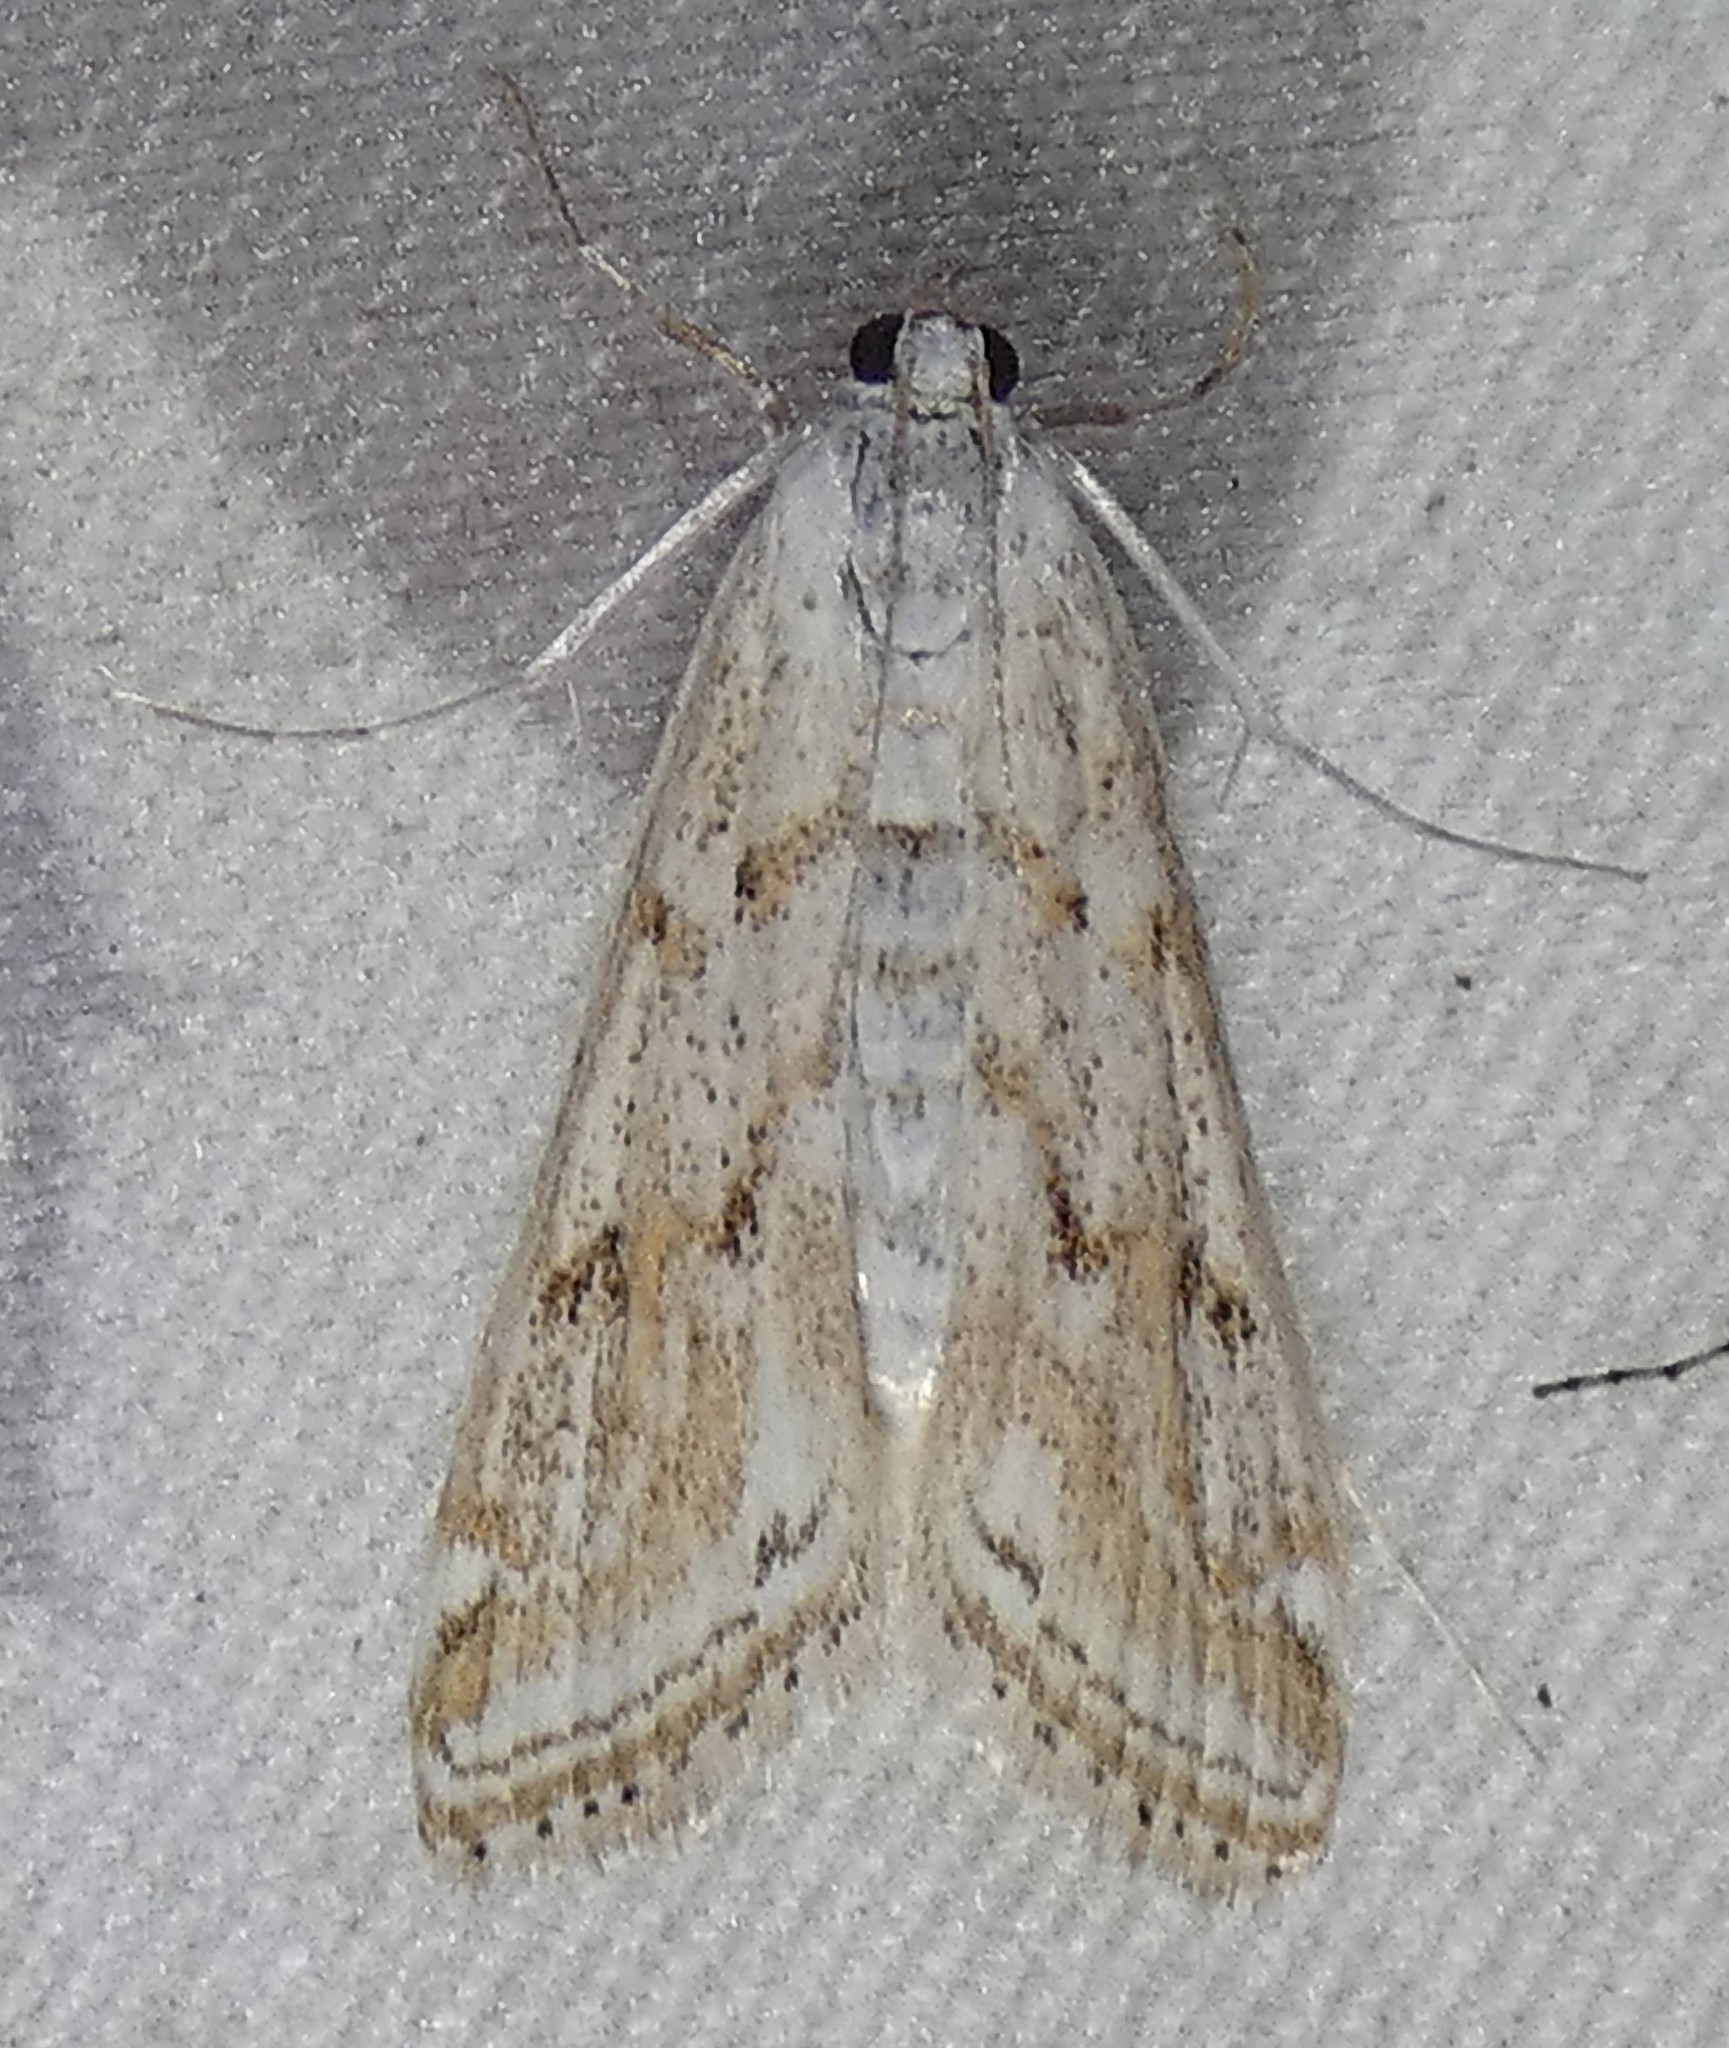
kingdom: Animalia
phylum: Arthropoda
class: Insecta
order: Lepidoptera
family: Crambidae
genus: Parapoynx
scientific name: Parapoynx allionealis
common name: Bladderwort casemaker
